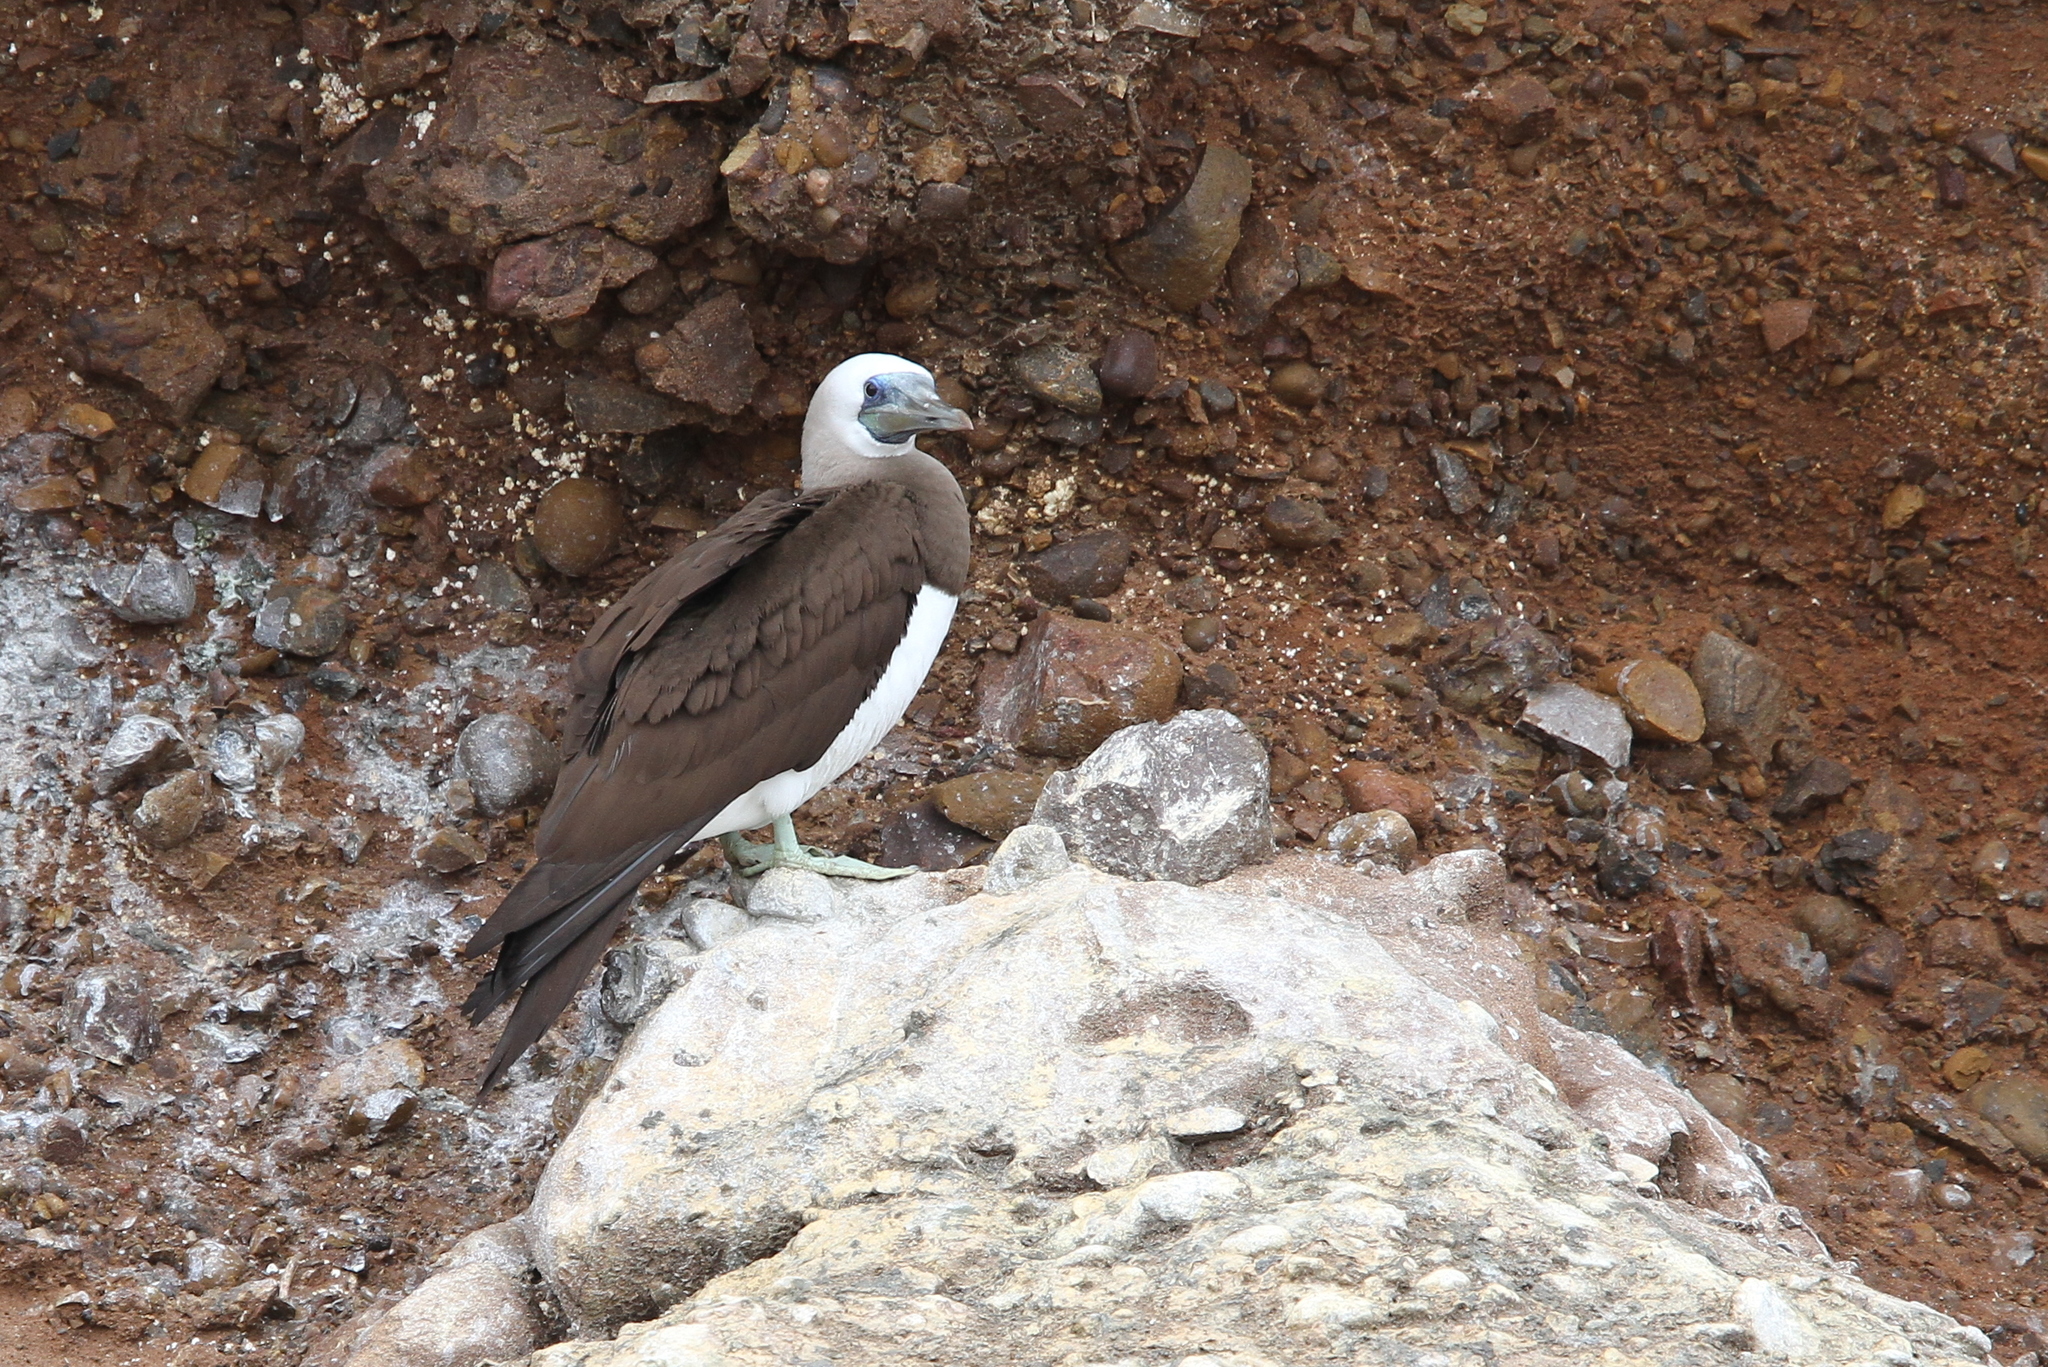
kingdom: Animalia
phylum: Chordata
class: Aves
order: Suliformes
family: Sulidae
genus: Sula
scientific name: Sula leucogaster
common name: Brown booby
